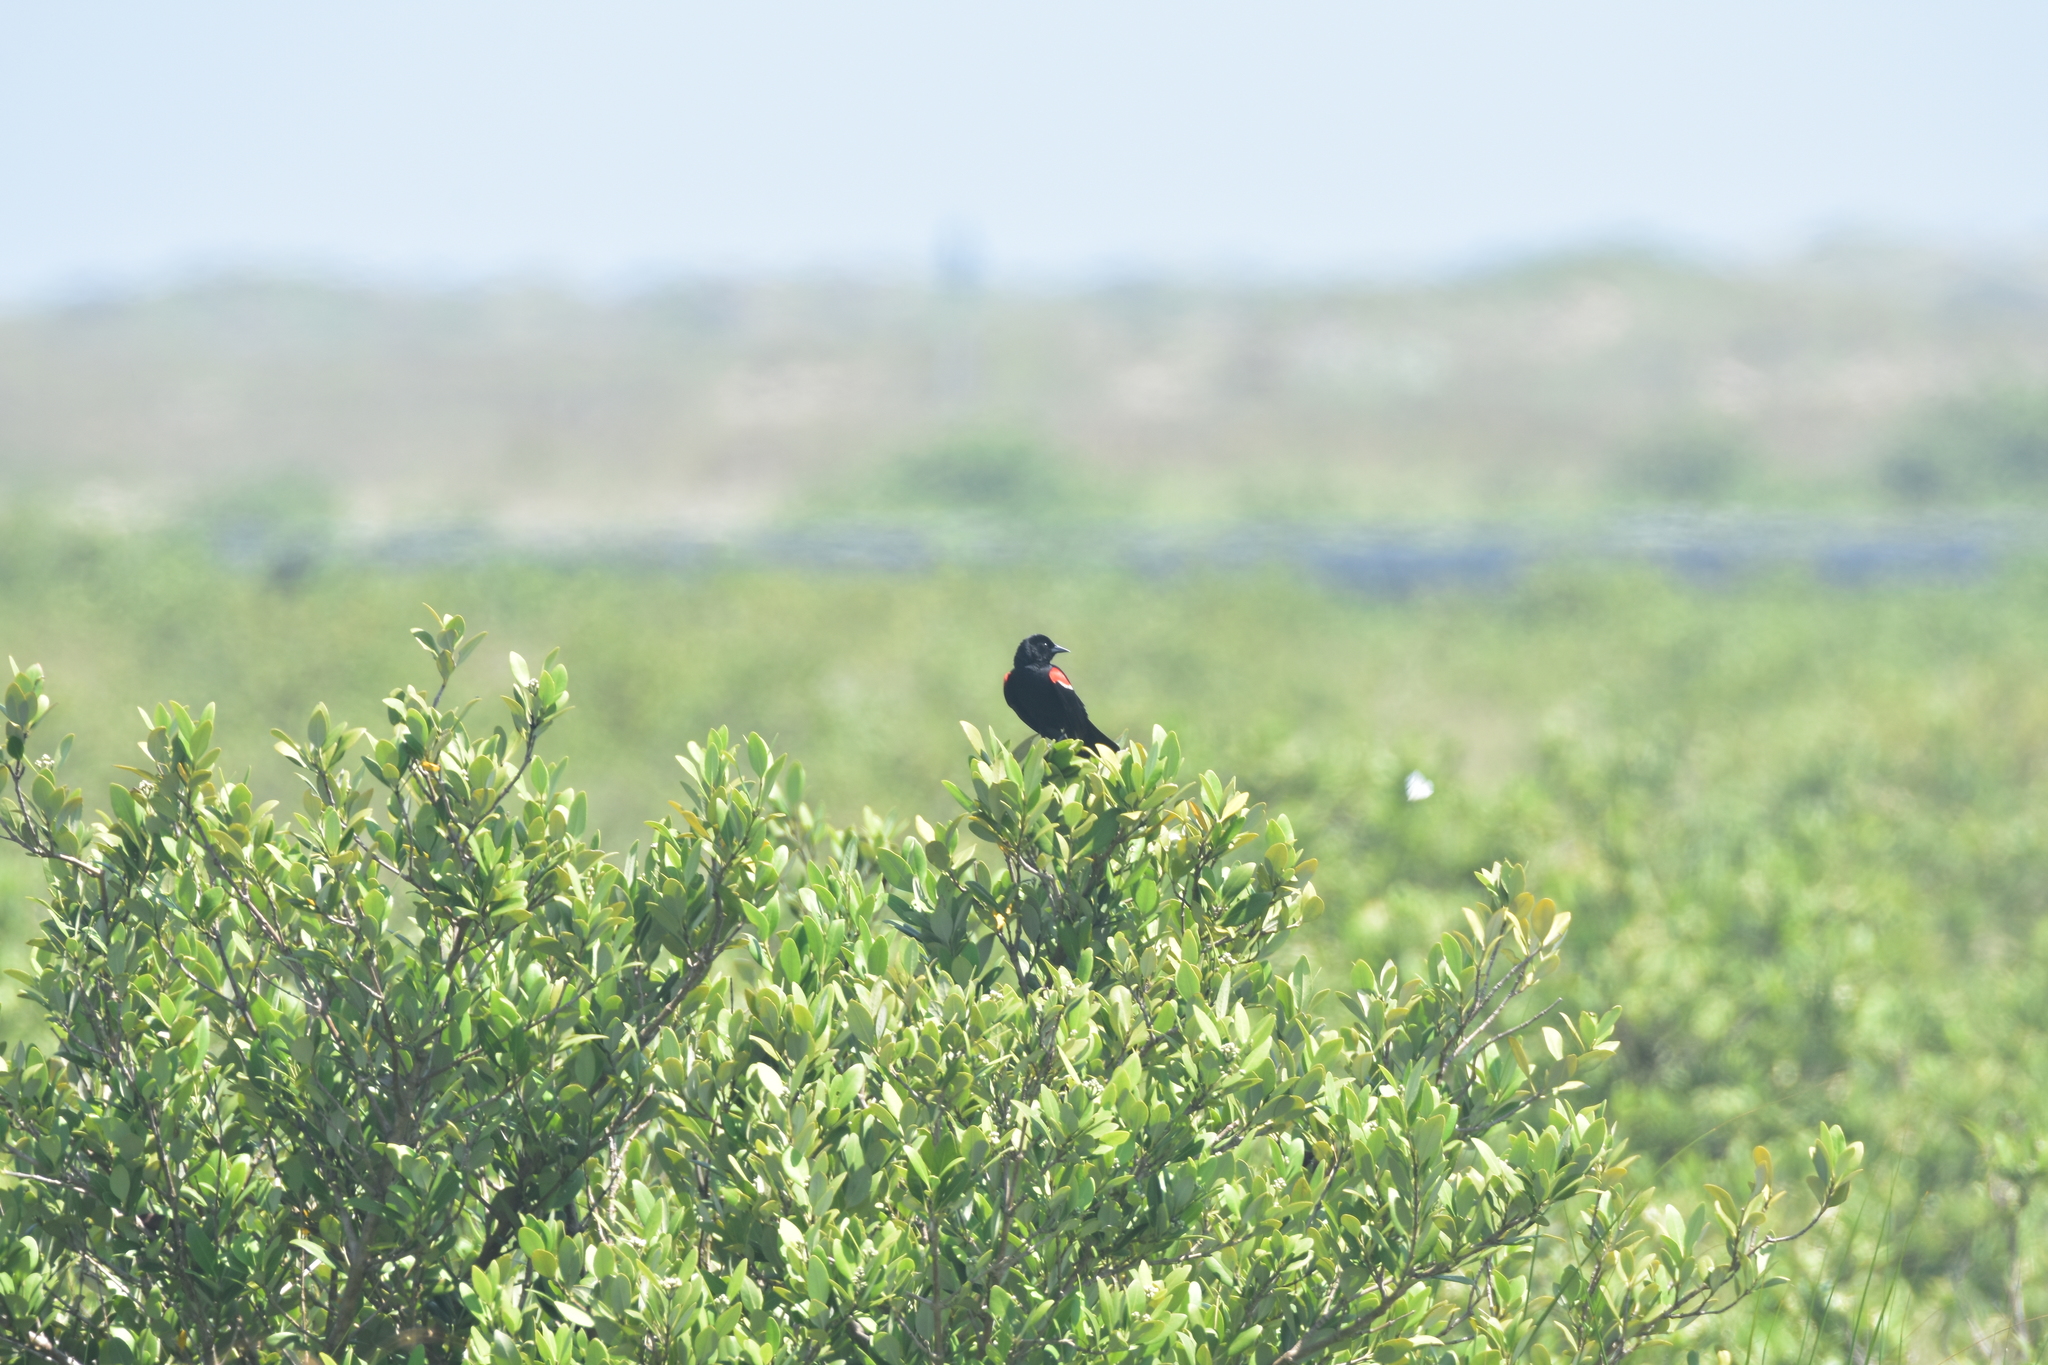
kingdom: Animalia
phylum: Chordata
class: Aves
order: Passeriformes
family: Icteridae
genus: Agelaius
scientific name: Agelaius phoeniceus
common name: Red-winged blackbird
